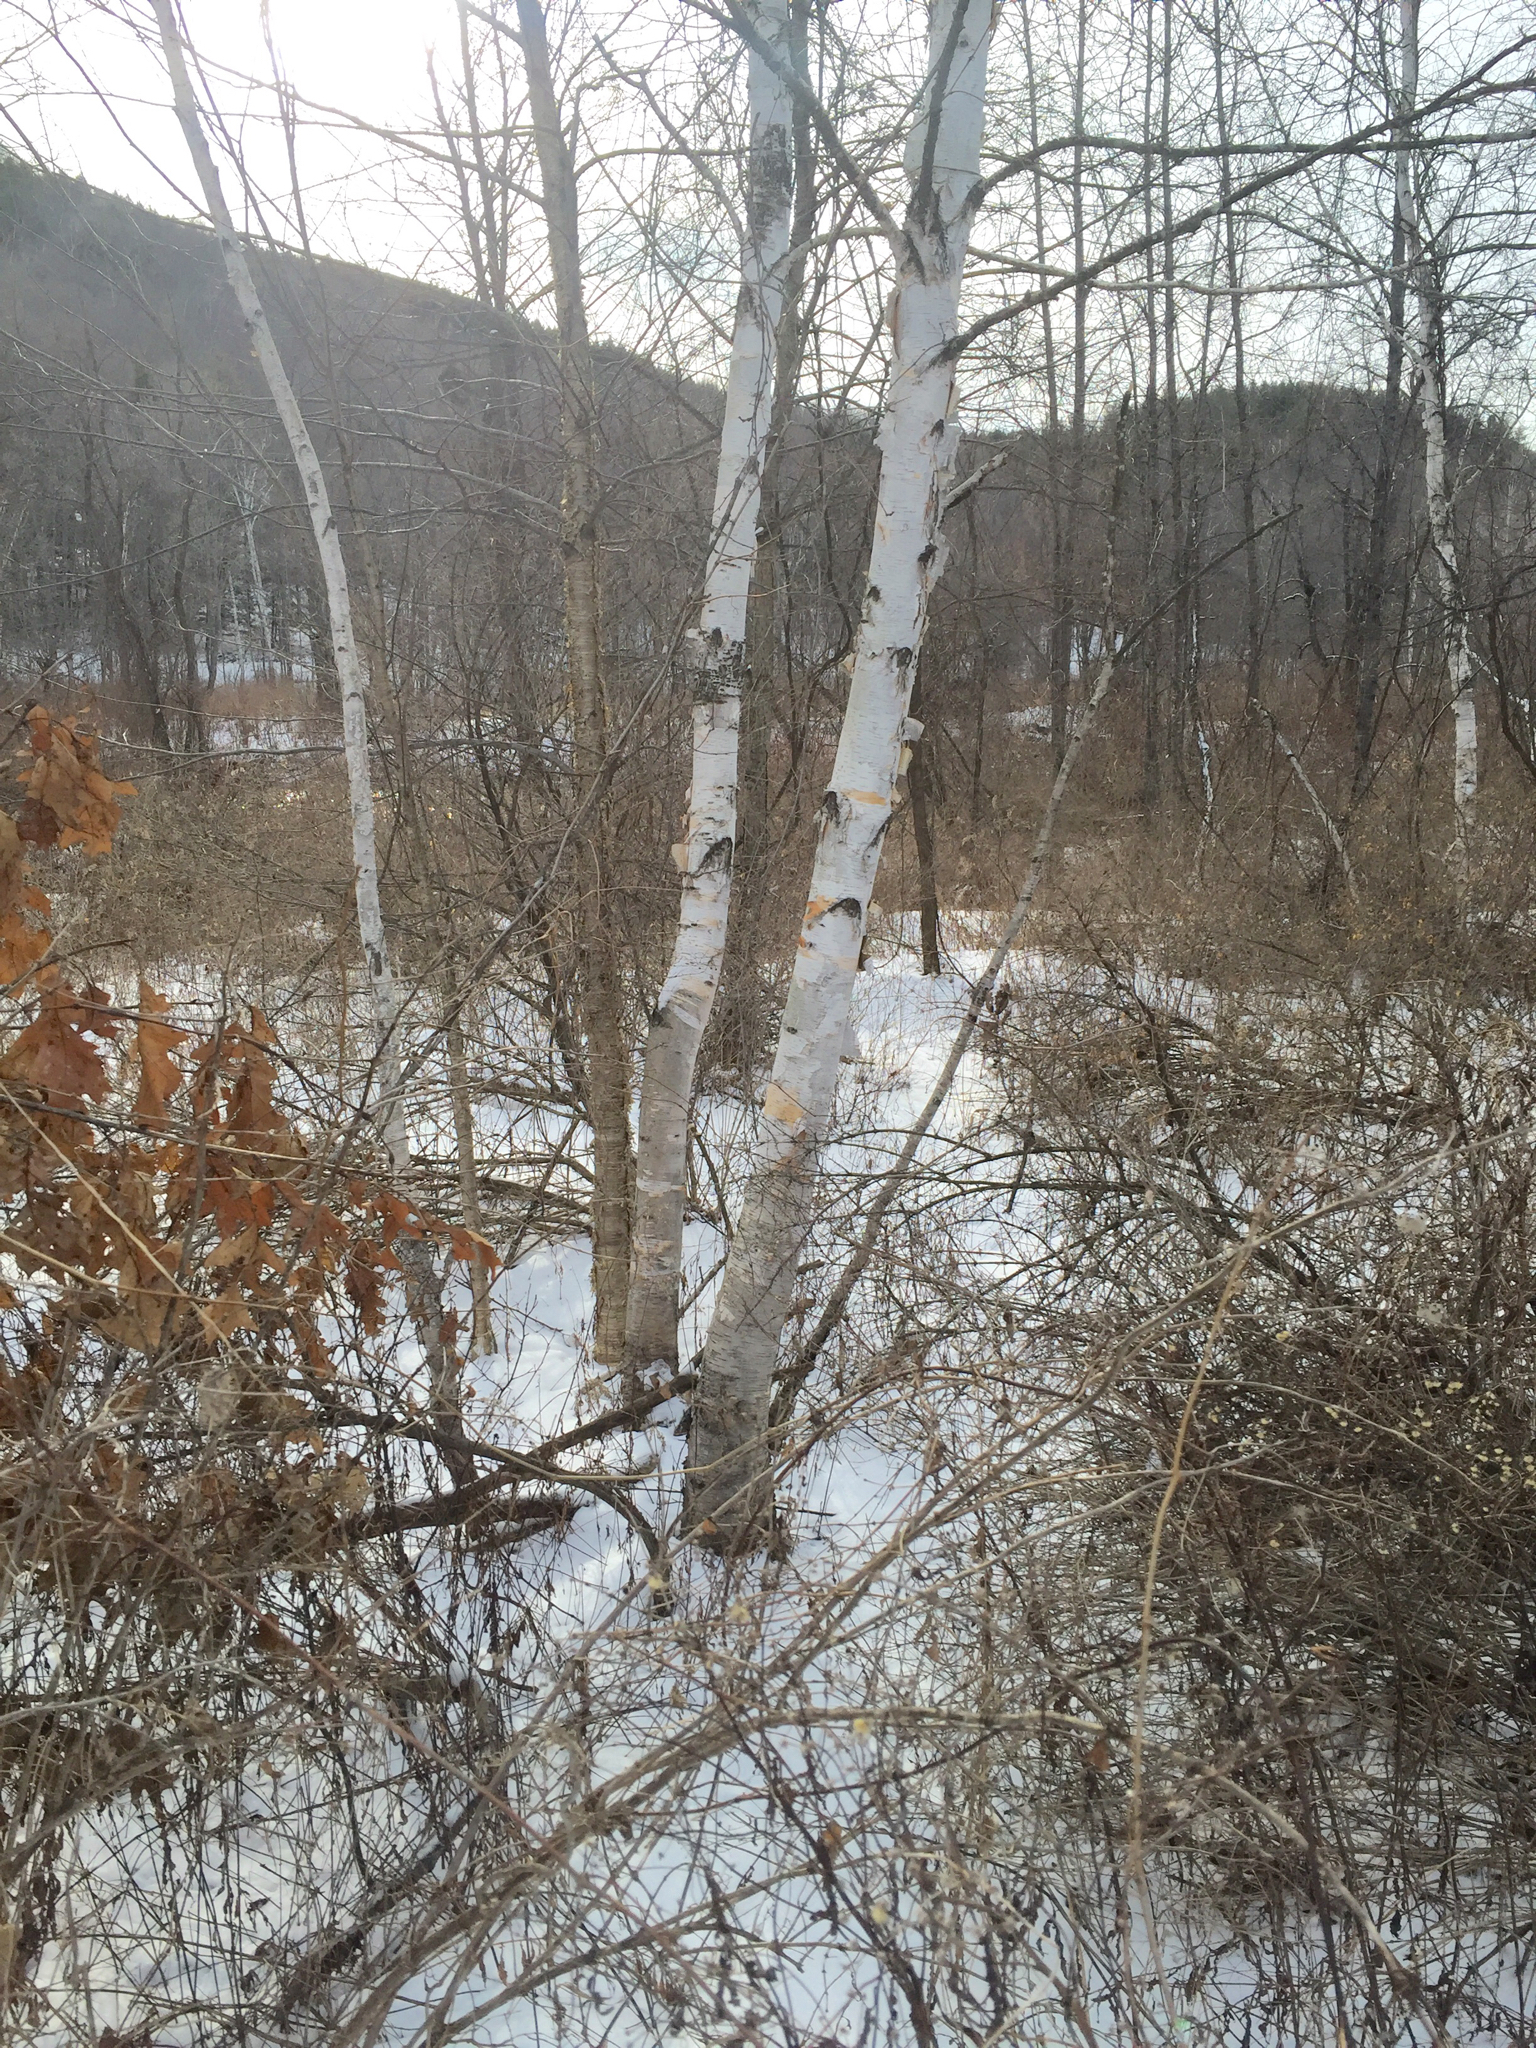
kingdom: Plantae
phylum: Tracheophyta
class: Magnoliopsida
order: Fagales
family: Betulaceae
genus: Betula
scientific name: Betula papyrifera
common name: Paper birch
